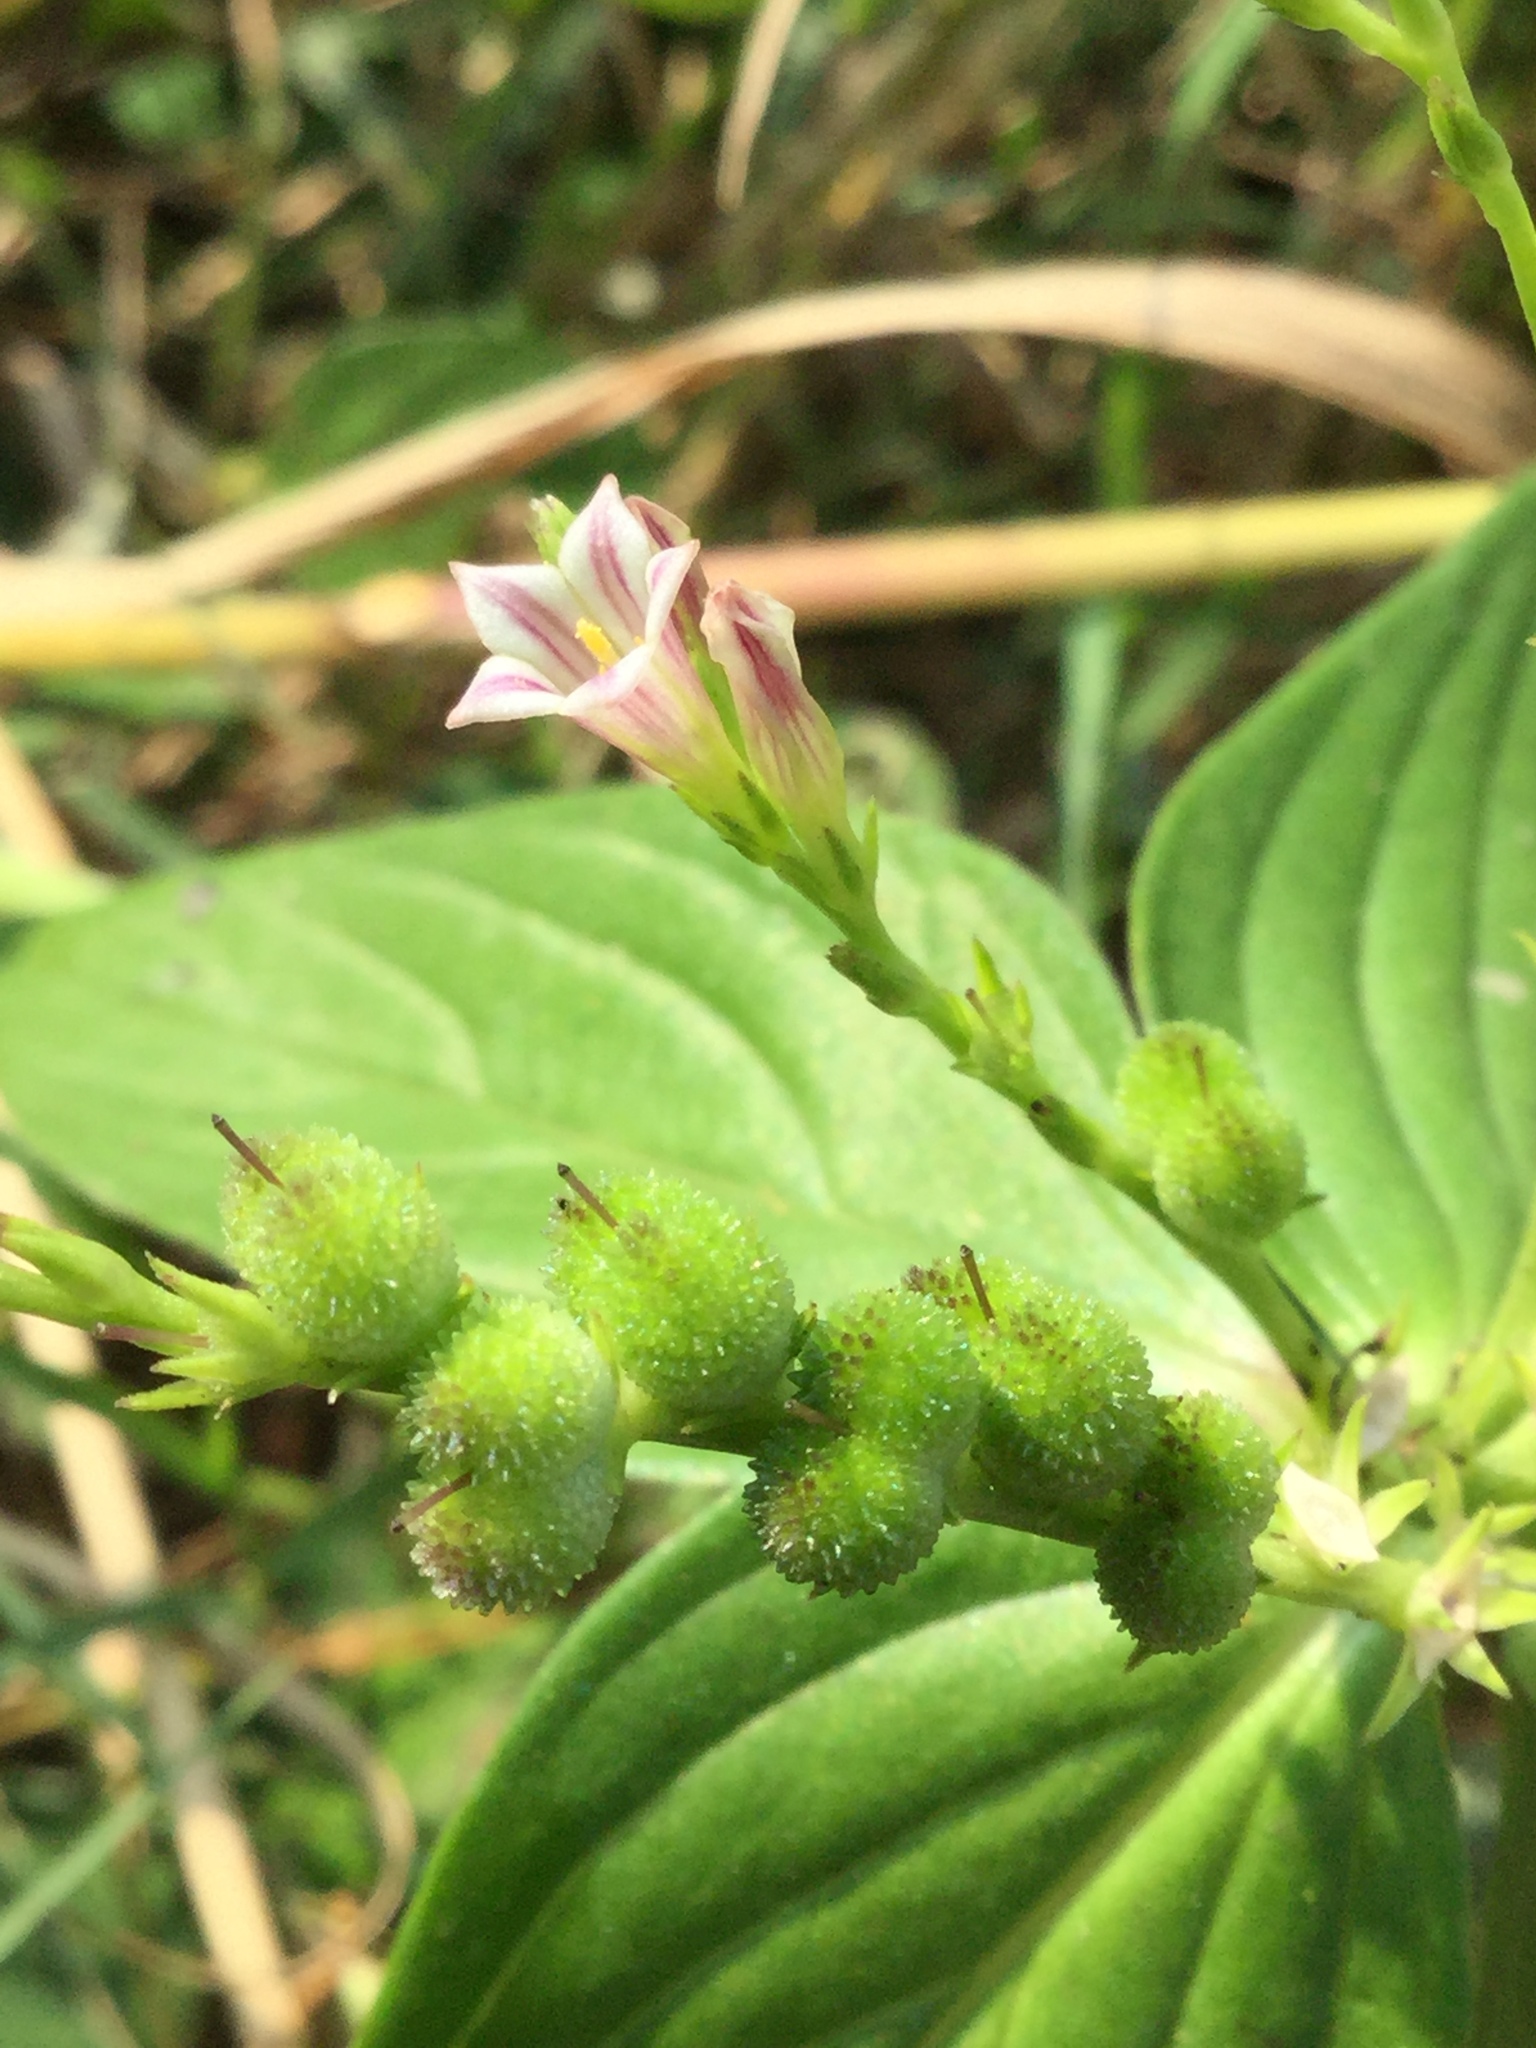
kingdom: Plantae
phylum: Tracheophyta
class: Magnoliopsida
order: Gentianales
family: Loganiaceae
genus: Spigelia
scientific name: Spigelia anthelmia
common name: West indian-pink
